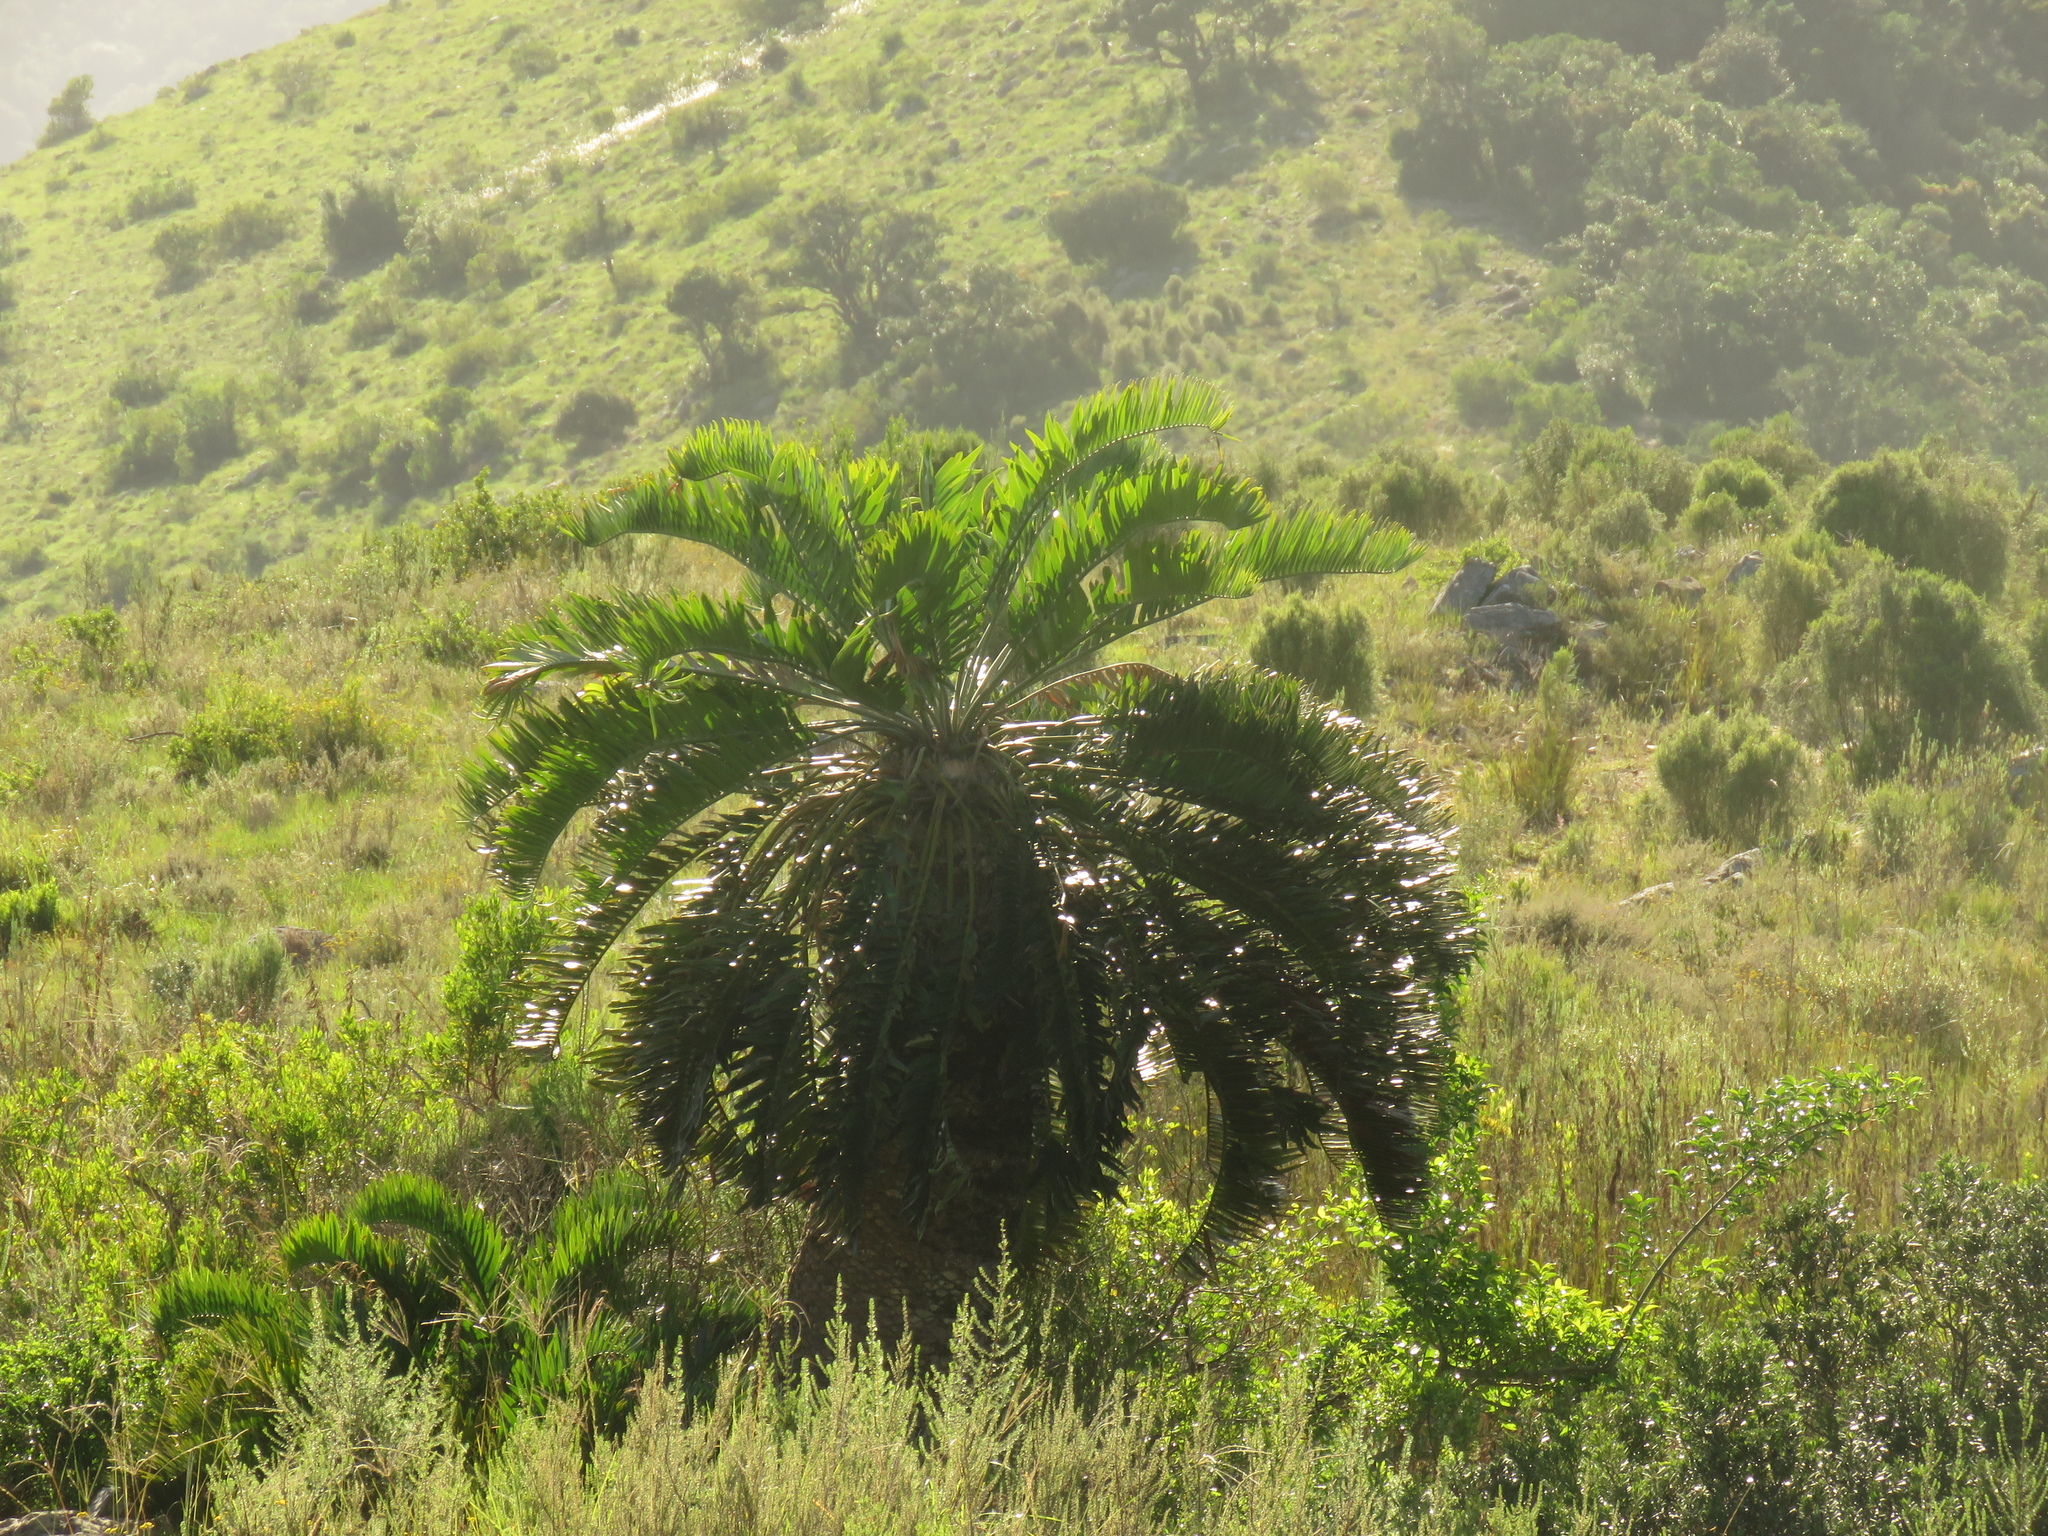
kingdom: Plantae
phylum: Tracheophyta
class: Cycadopsida
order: Cycadales
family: Zamiaceae
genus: Encephalartos
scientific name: Encephalartos longifolius
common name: Suurberg cycad
